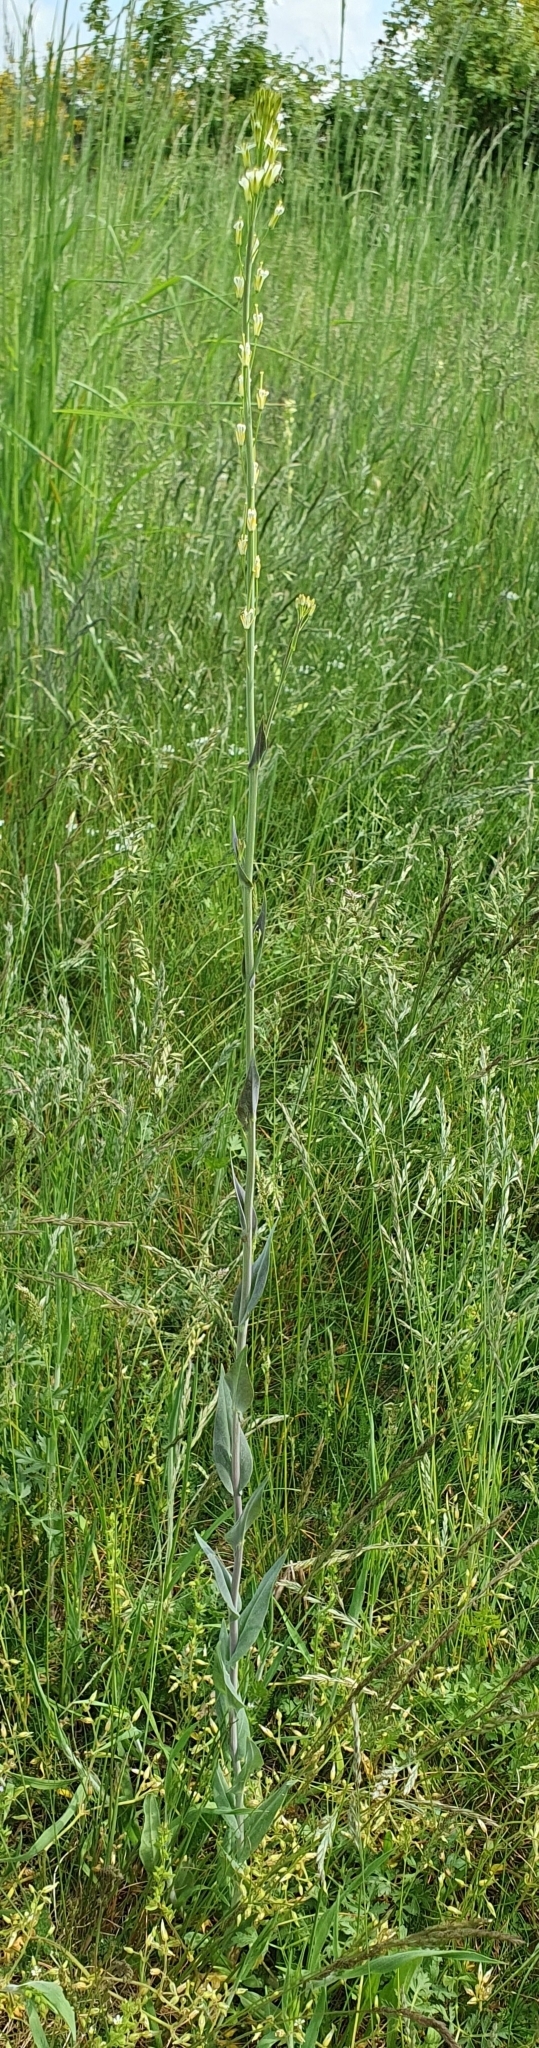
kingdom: Plantae
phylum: Tracheophyta
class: Magnoliopsida
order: Brassicales
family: Brassicaceae
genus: Turritis
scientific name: Turritis glabra
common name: Tower rockcress
